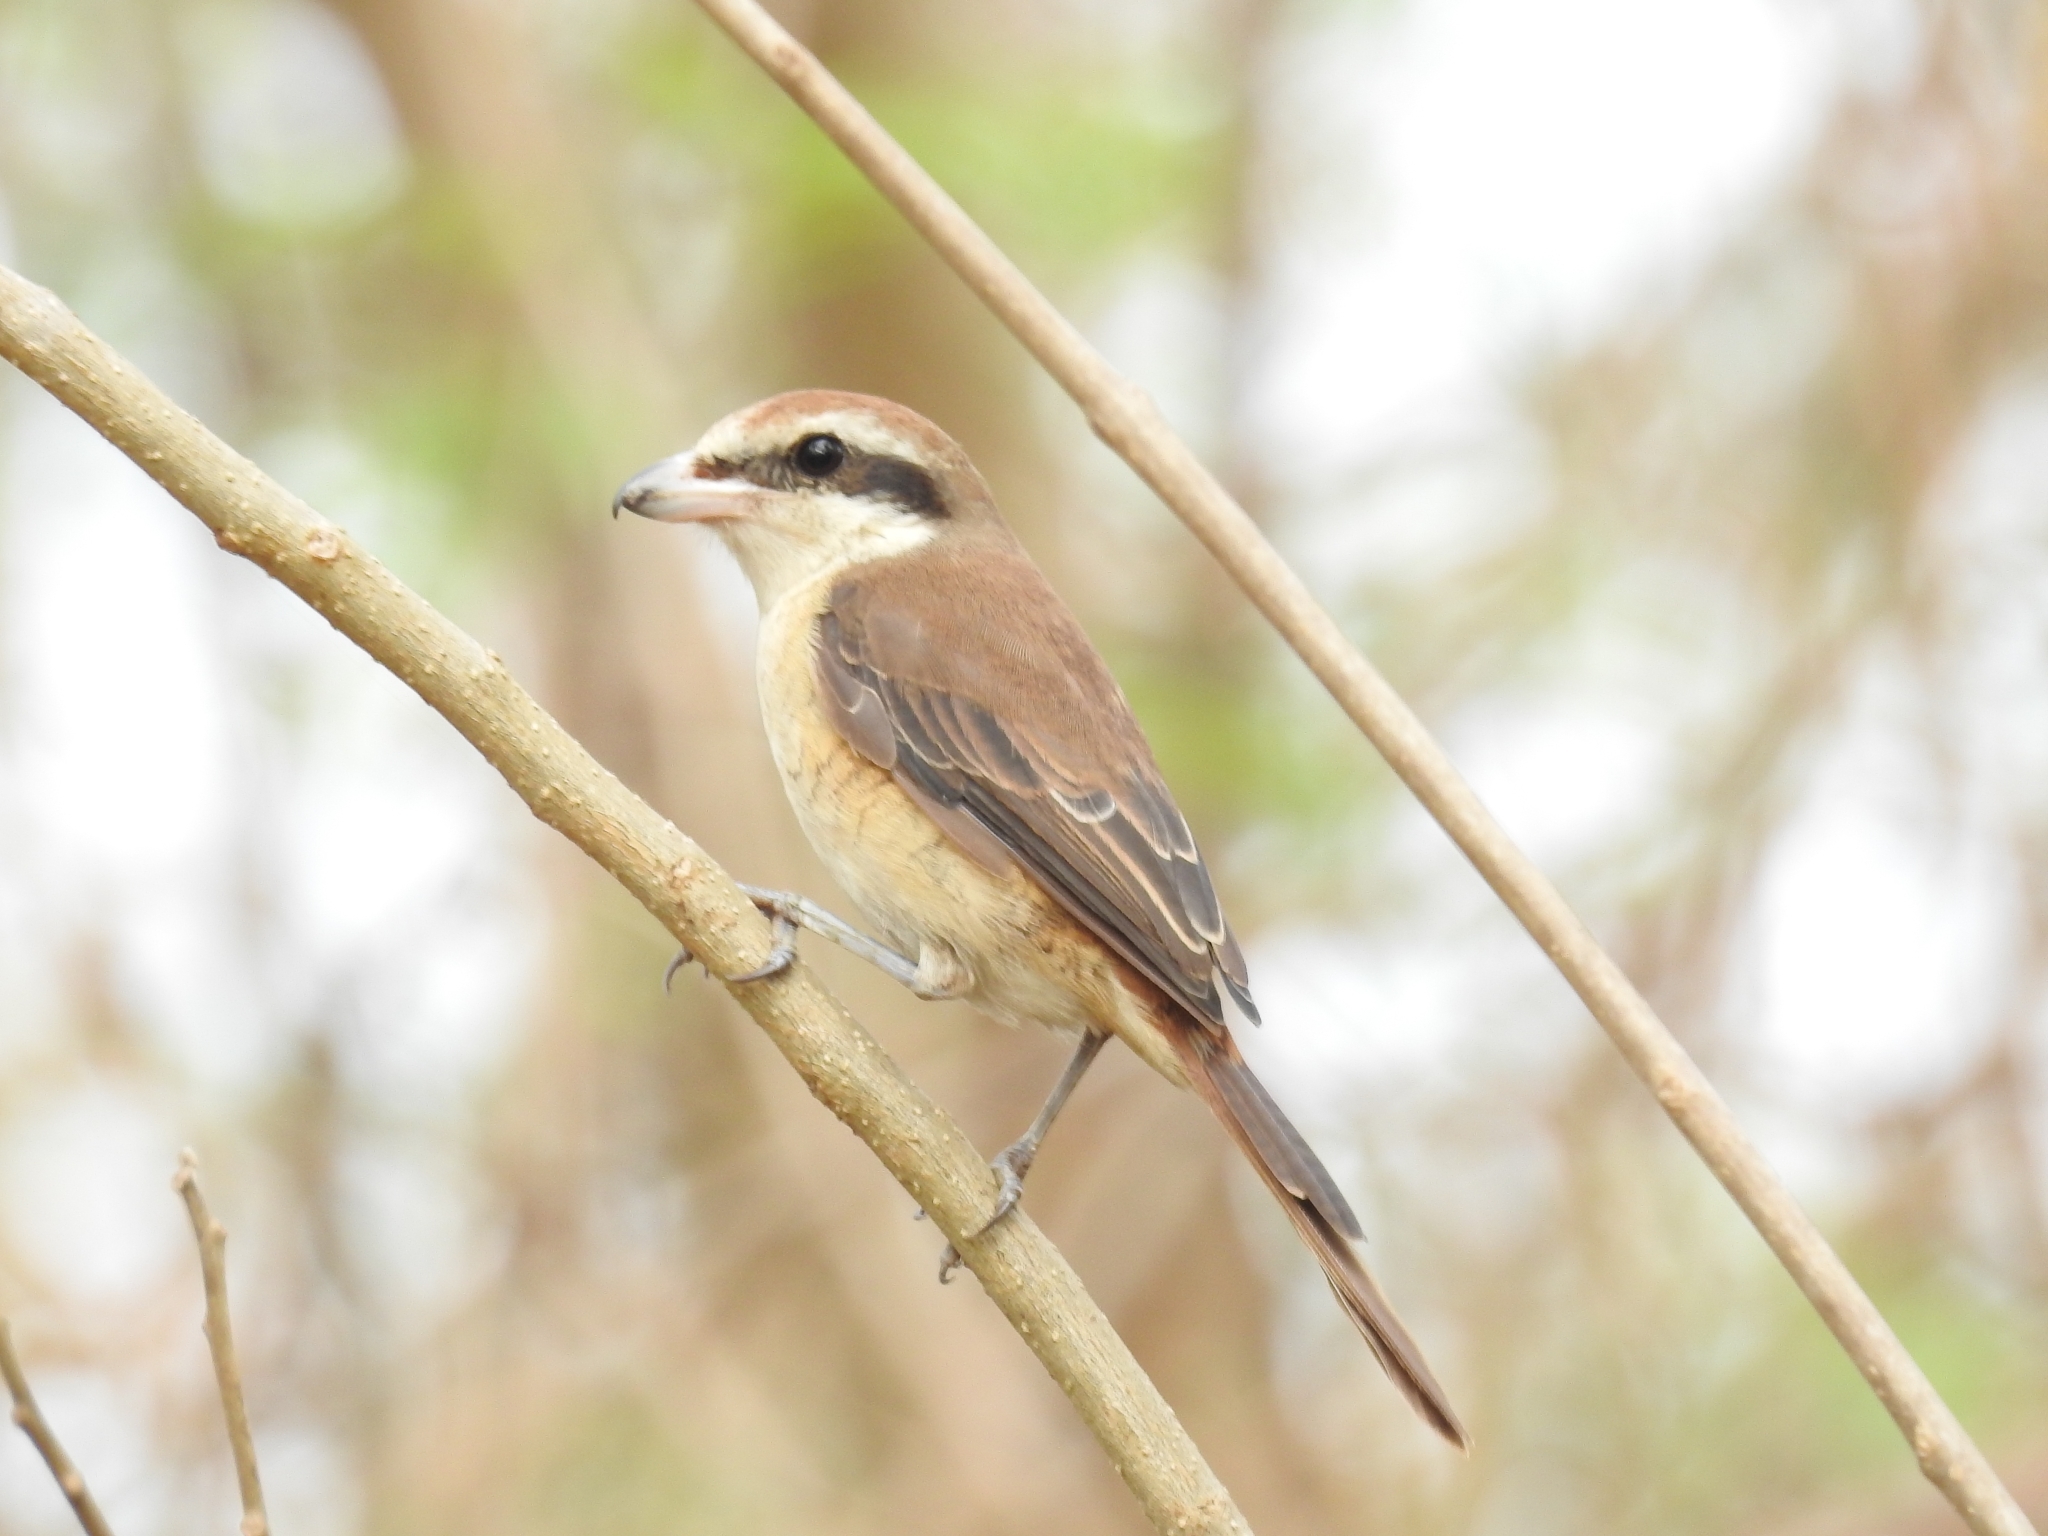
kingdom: Animalia
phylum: Chordata
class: Aves
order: Passeriformes
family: Laniidae
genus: Lanius
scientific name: Lanius cristatus
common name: Brown shrike
